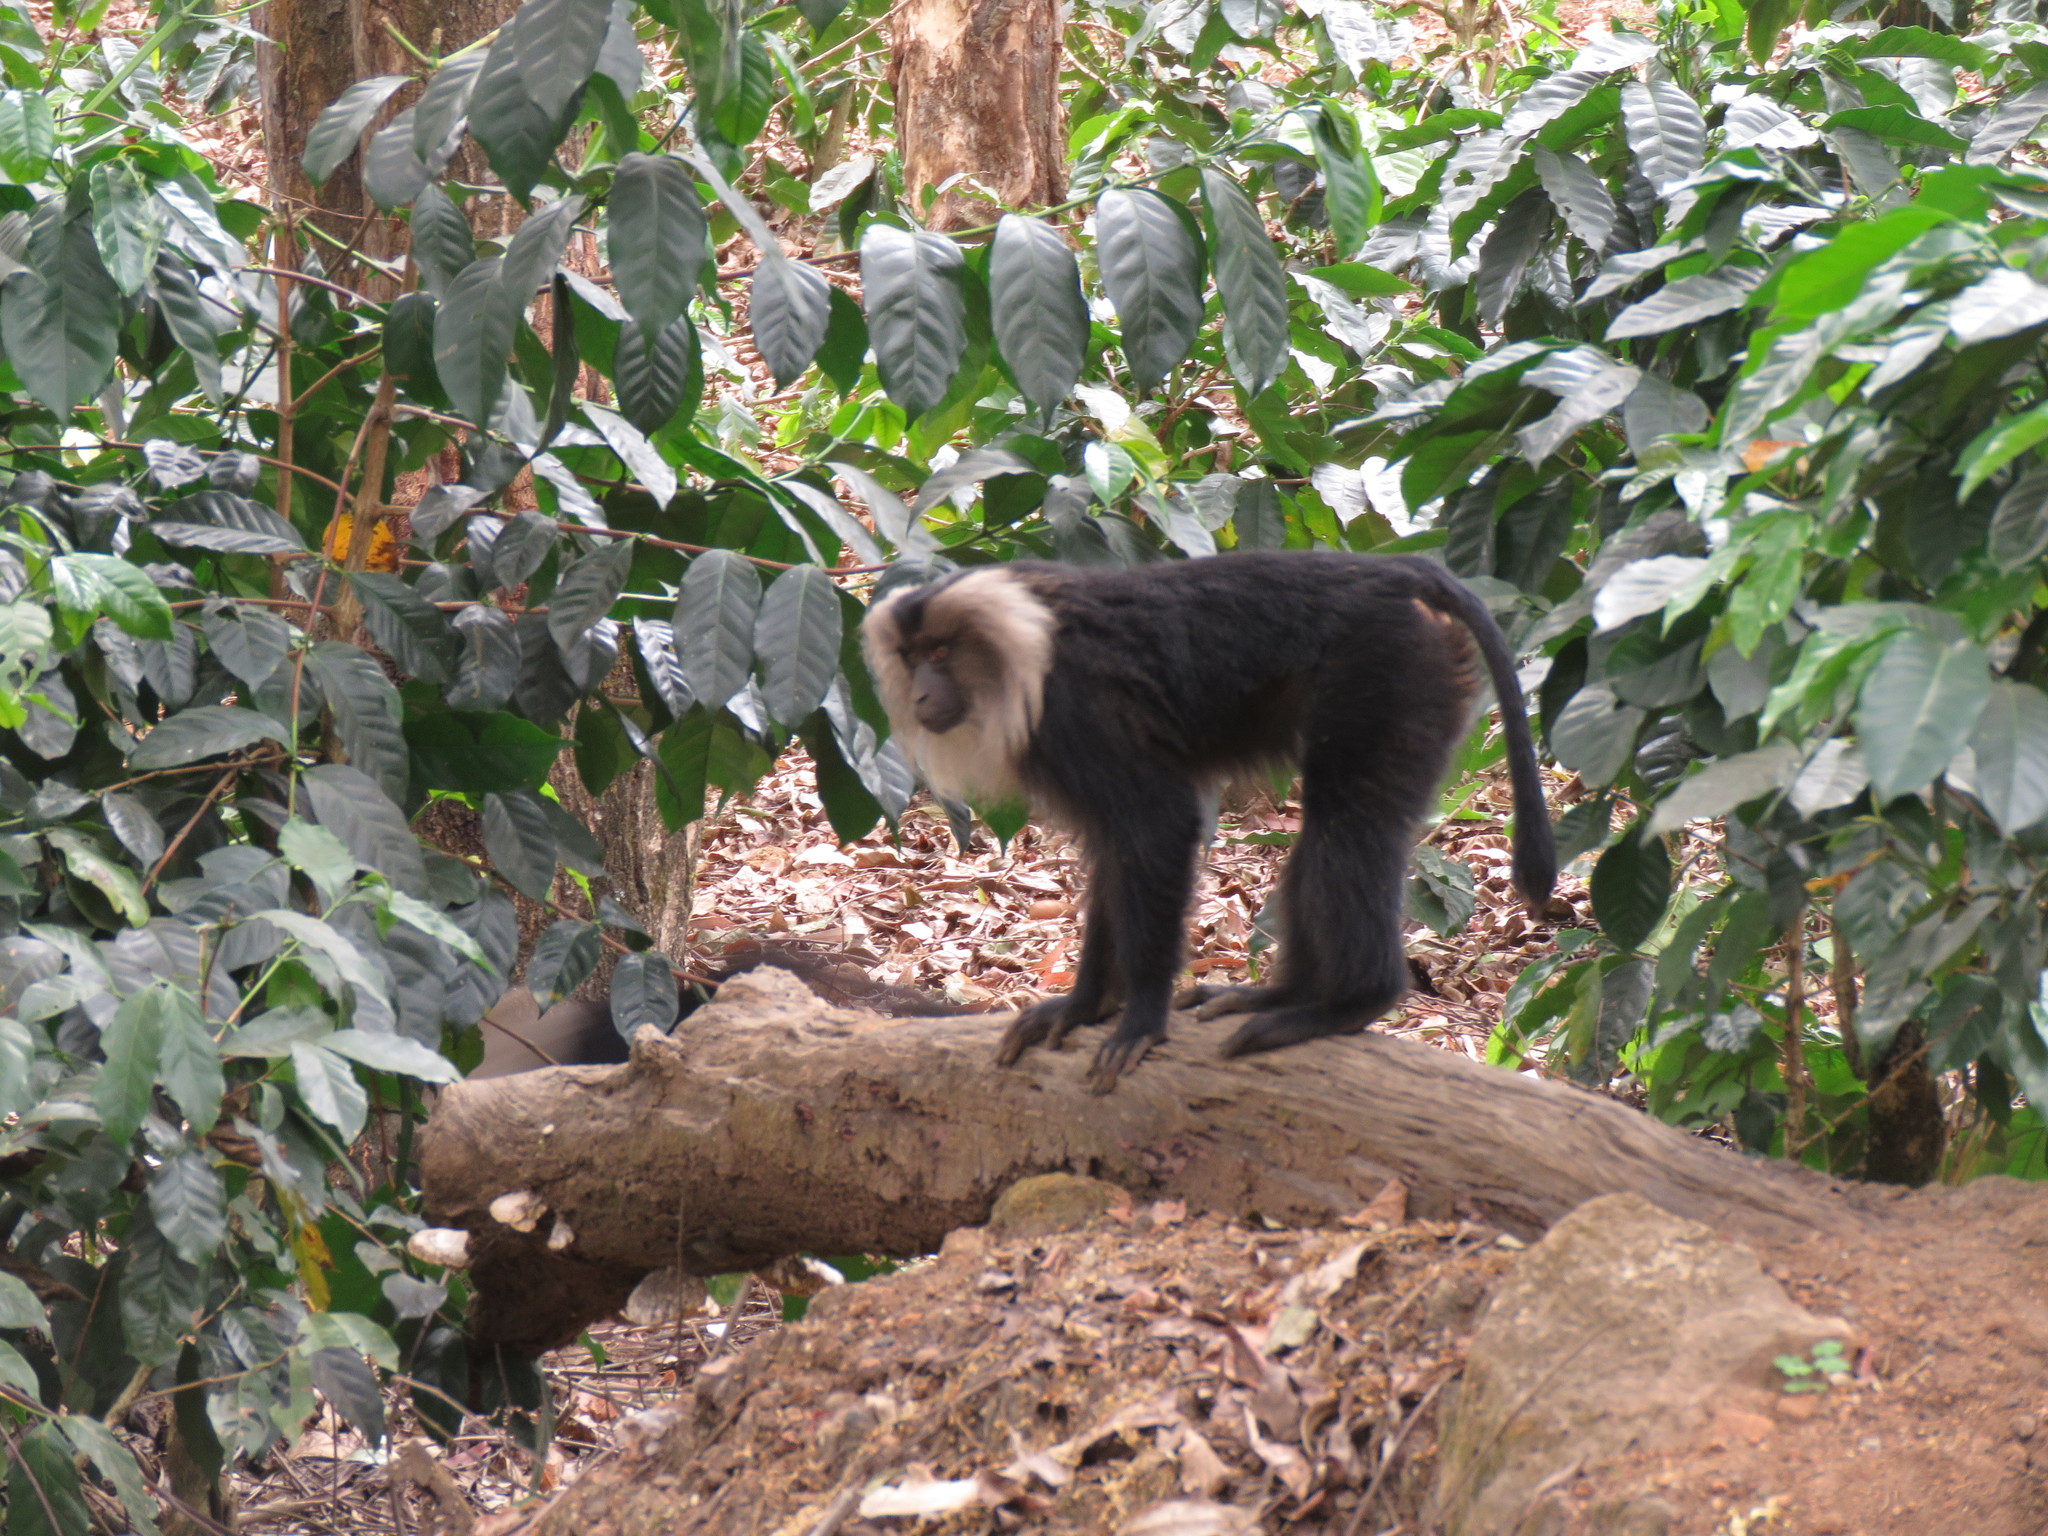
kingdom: Animalia
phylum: Chordata
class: Mammalia
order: Primates
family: Cercopithecidae
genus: Macaca
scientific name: Macaca silenus
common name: Lion-tailed macaque
